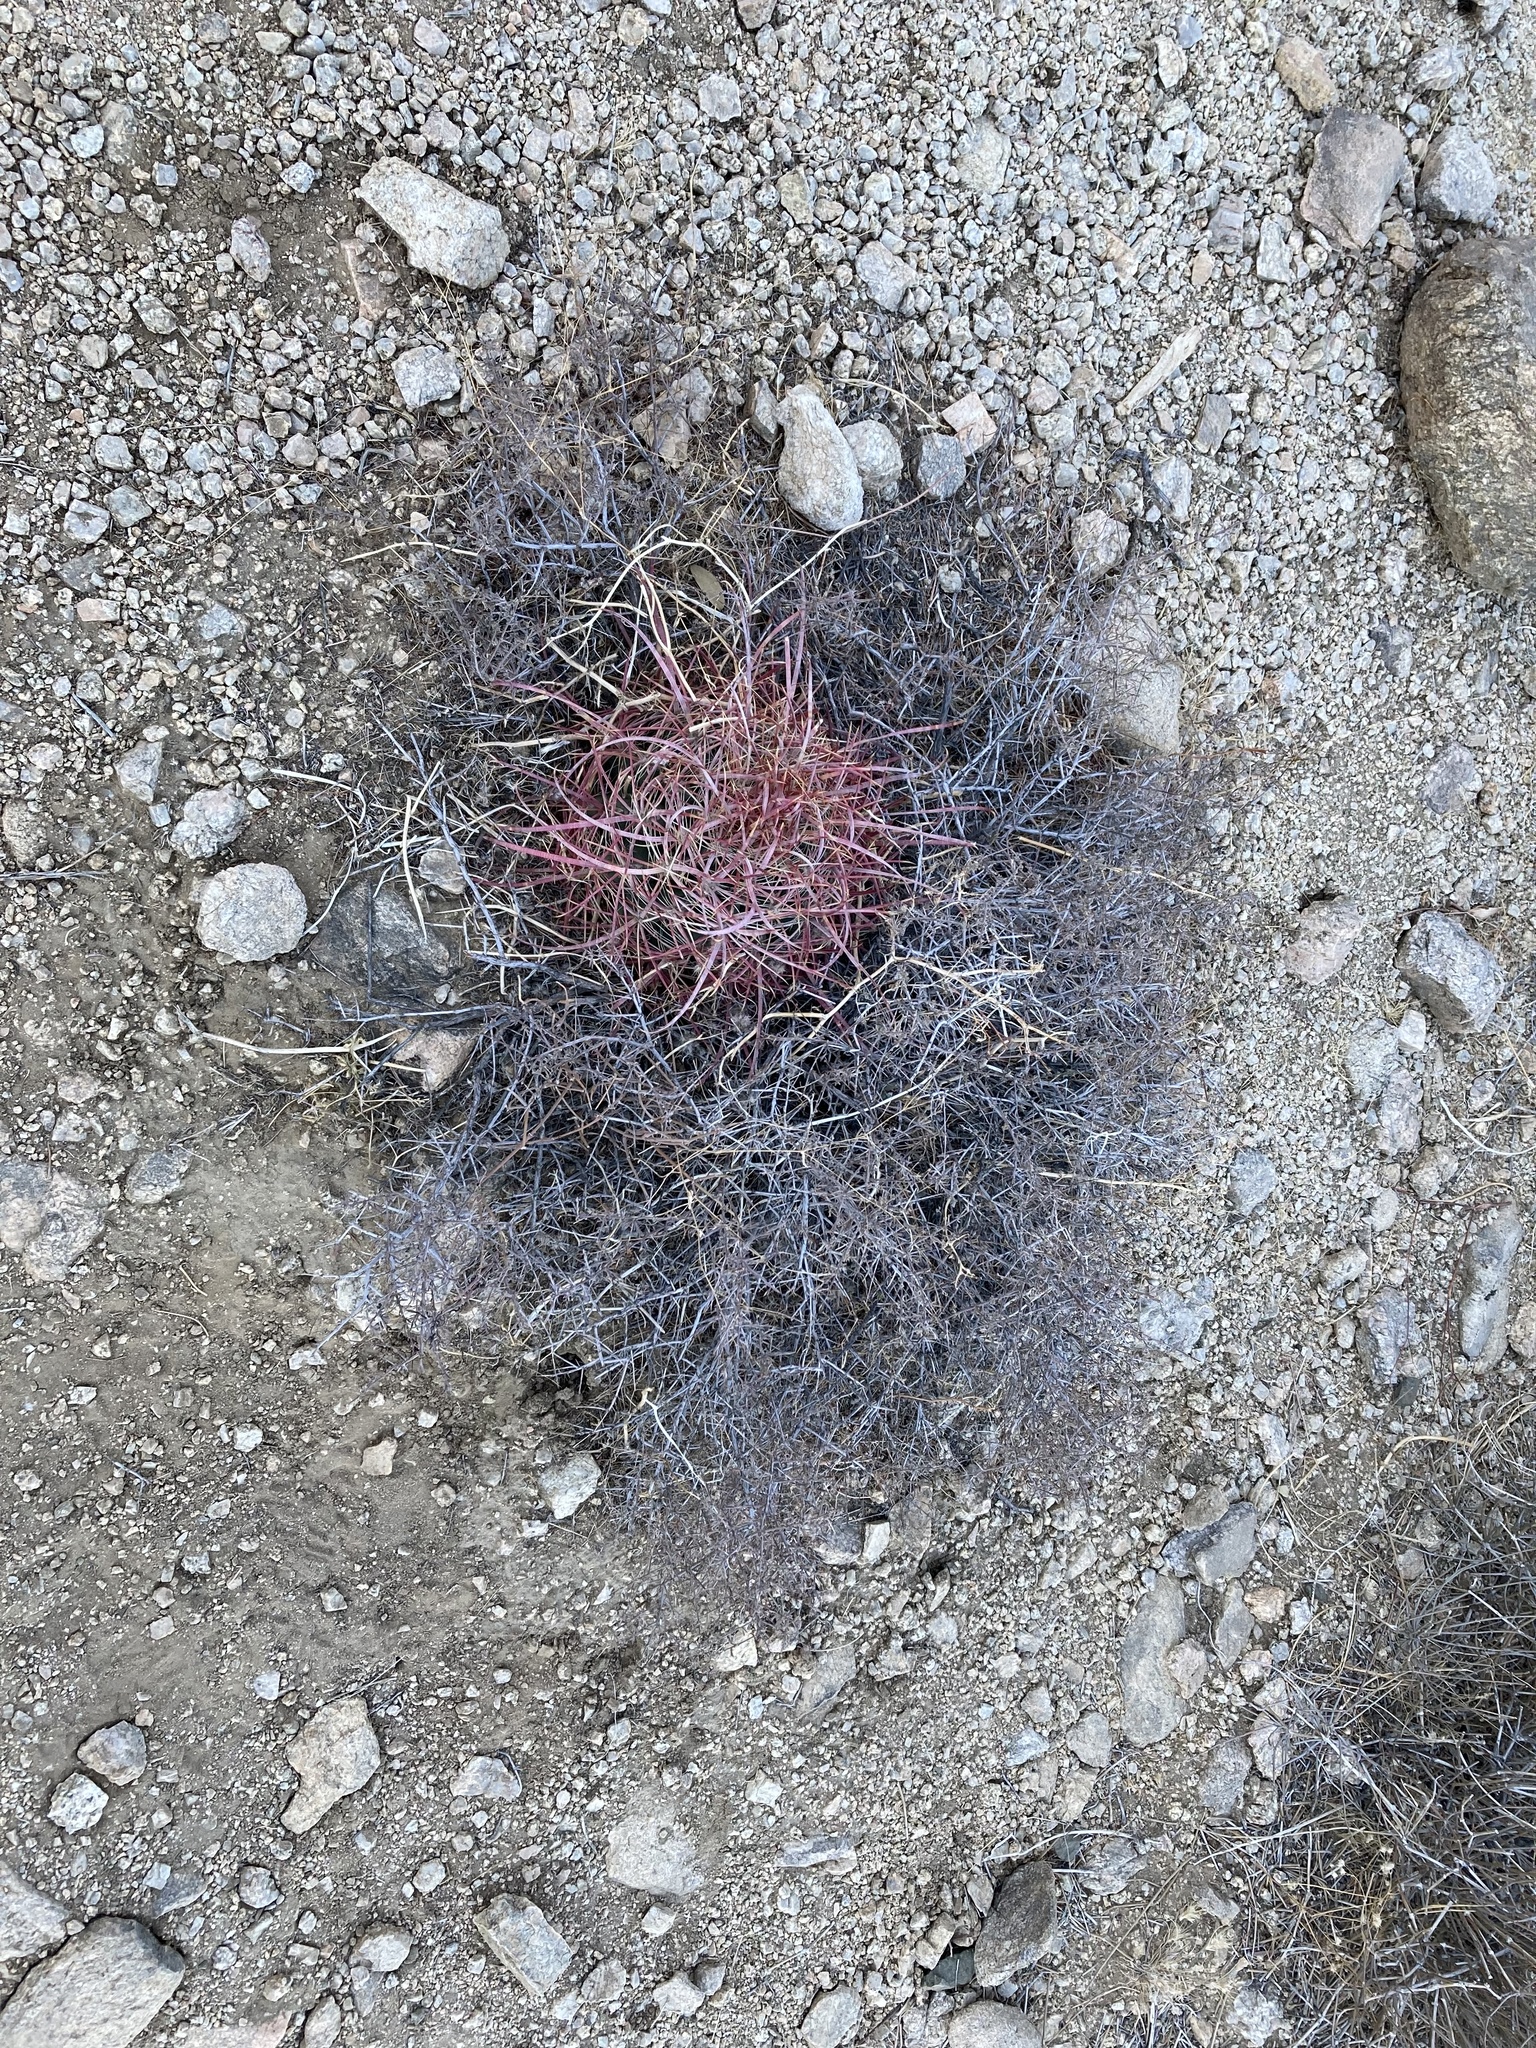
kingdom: Plantae
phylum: Tracheophyta
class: Magnoliopsida
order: Caryophyllales
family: Cactaceae
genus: Ferocactus
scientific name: Ferocactus cylindraceus
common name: California barrel cactus
